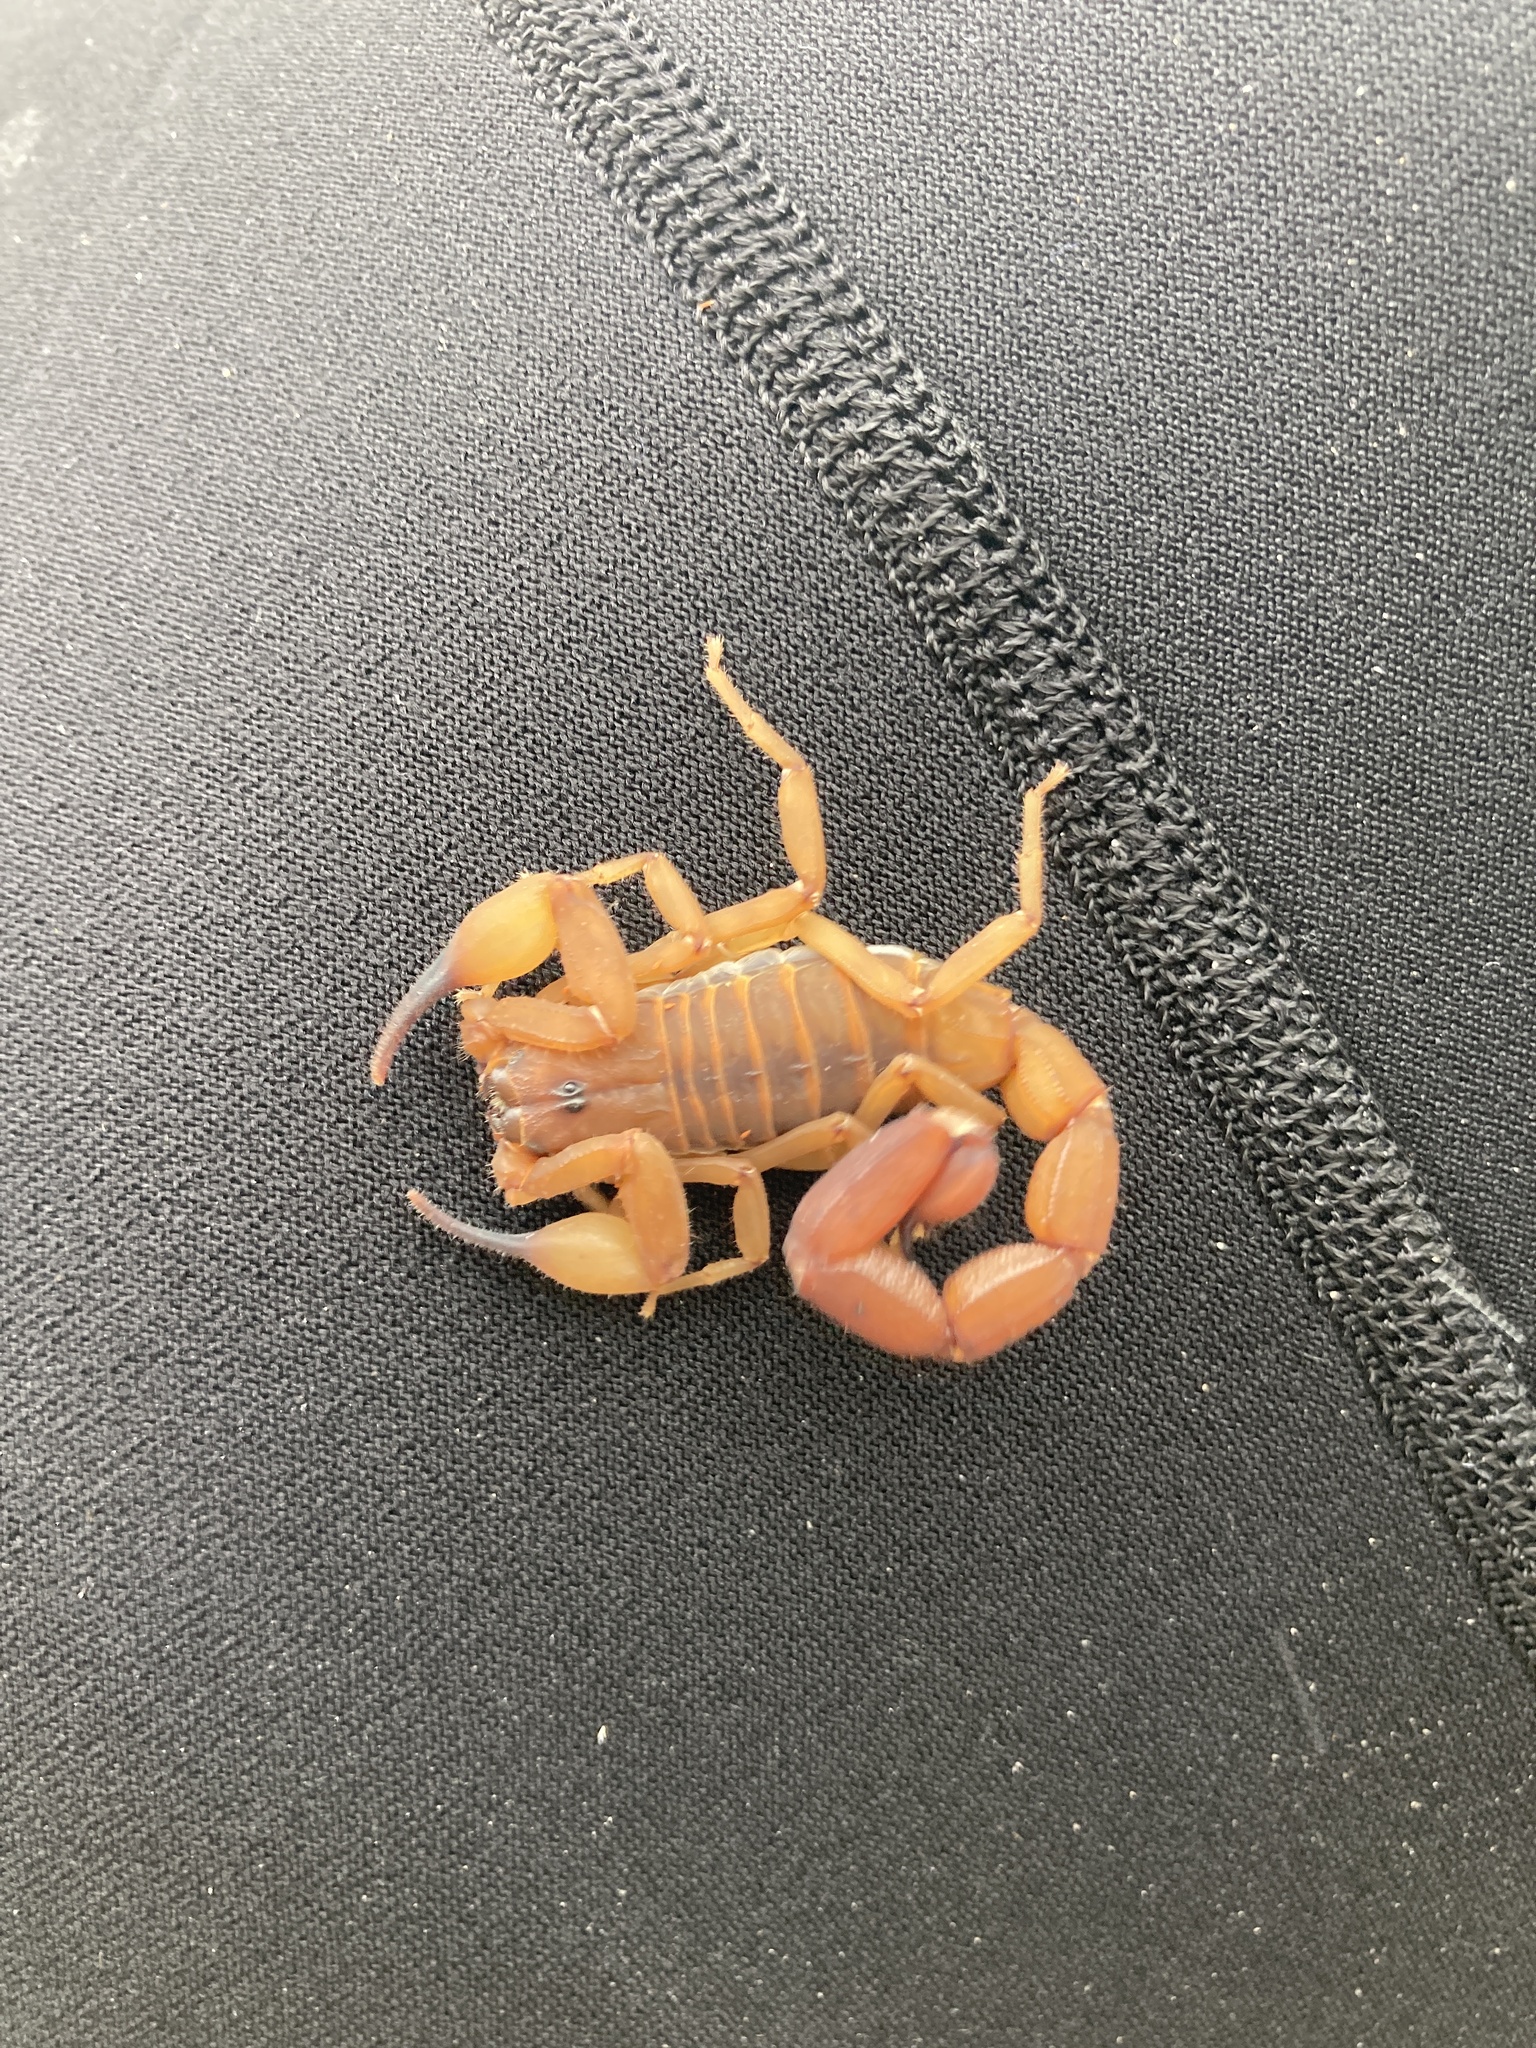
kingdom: Animalia
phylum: Arthropoda
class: Arachnida
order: Scorpiones
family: Buthidae
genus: Babycurus
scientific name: Babycurus jacksoni
